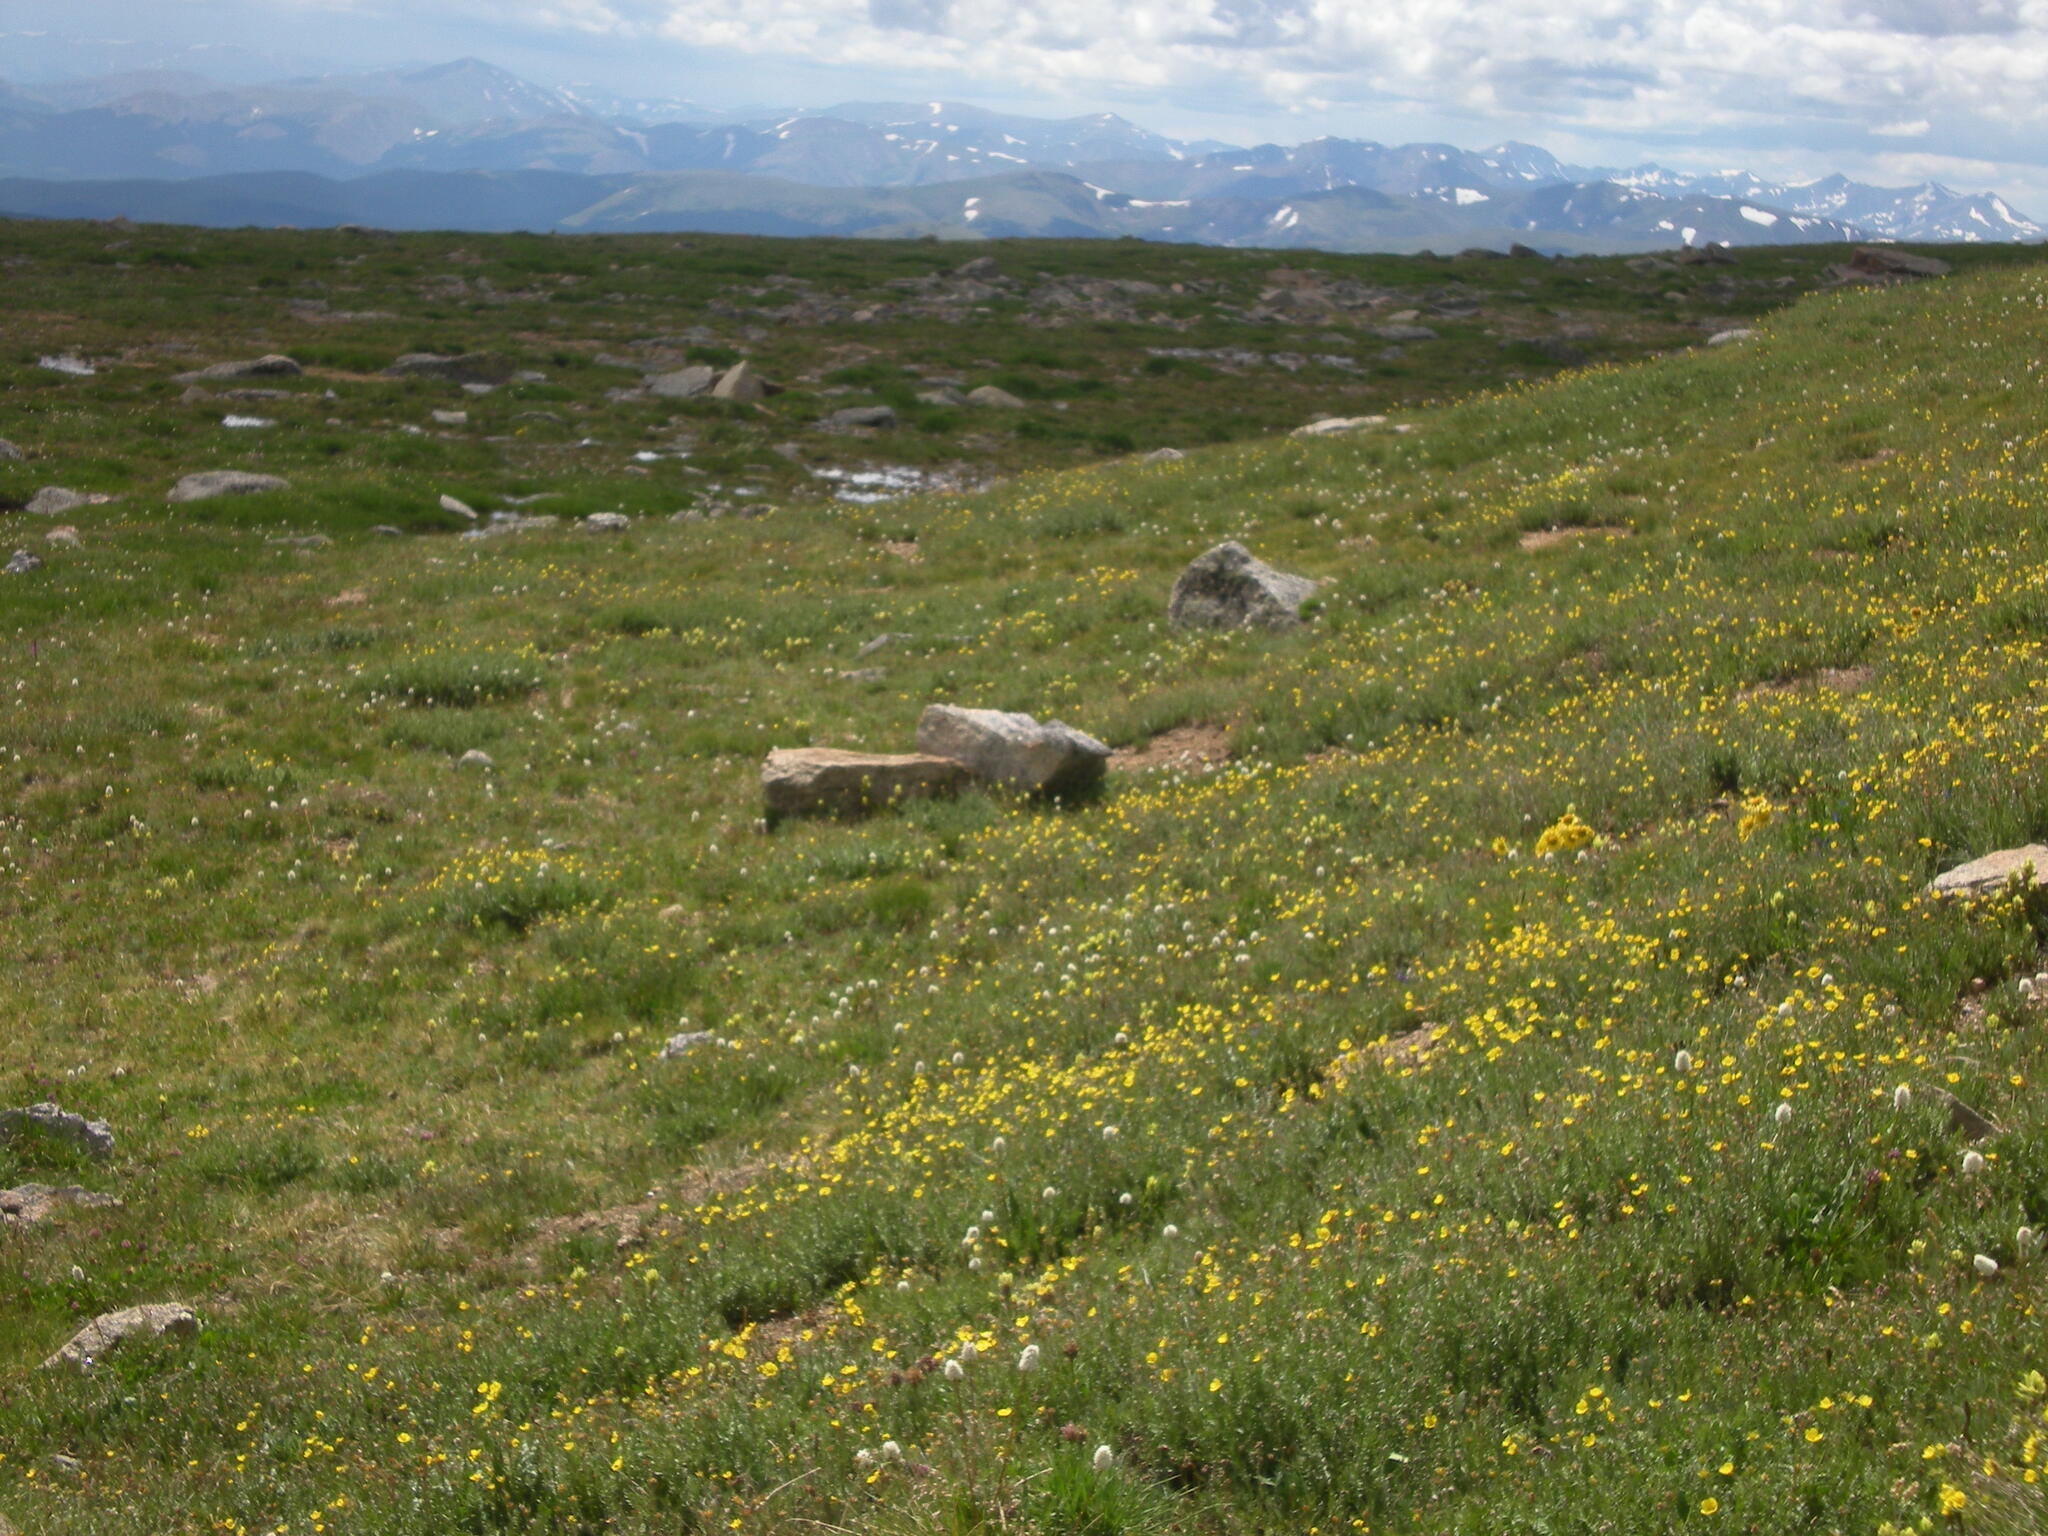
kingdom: Plantae
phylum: Tracheophyta
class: Magnoliopsida
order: Caryophyllales
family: Polygonaceae
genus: Bistorta
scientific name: Bistorta bistortoides
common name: American bistort
